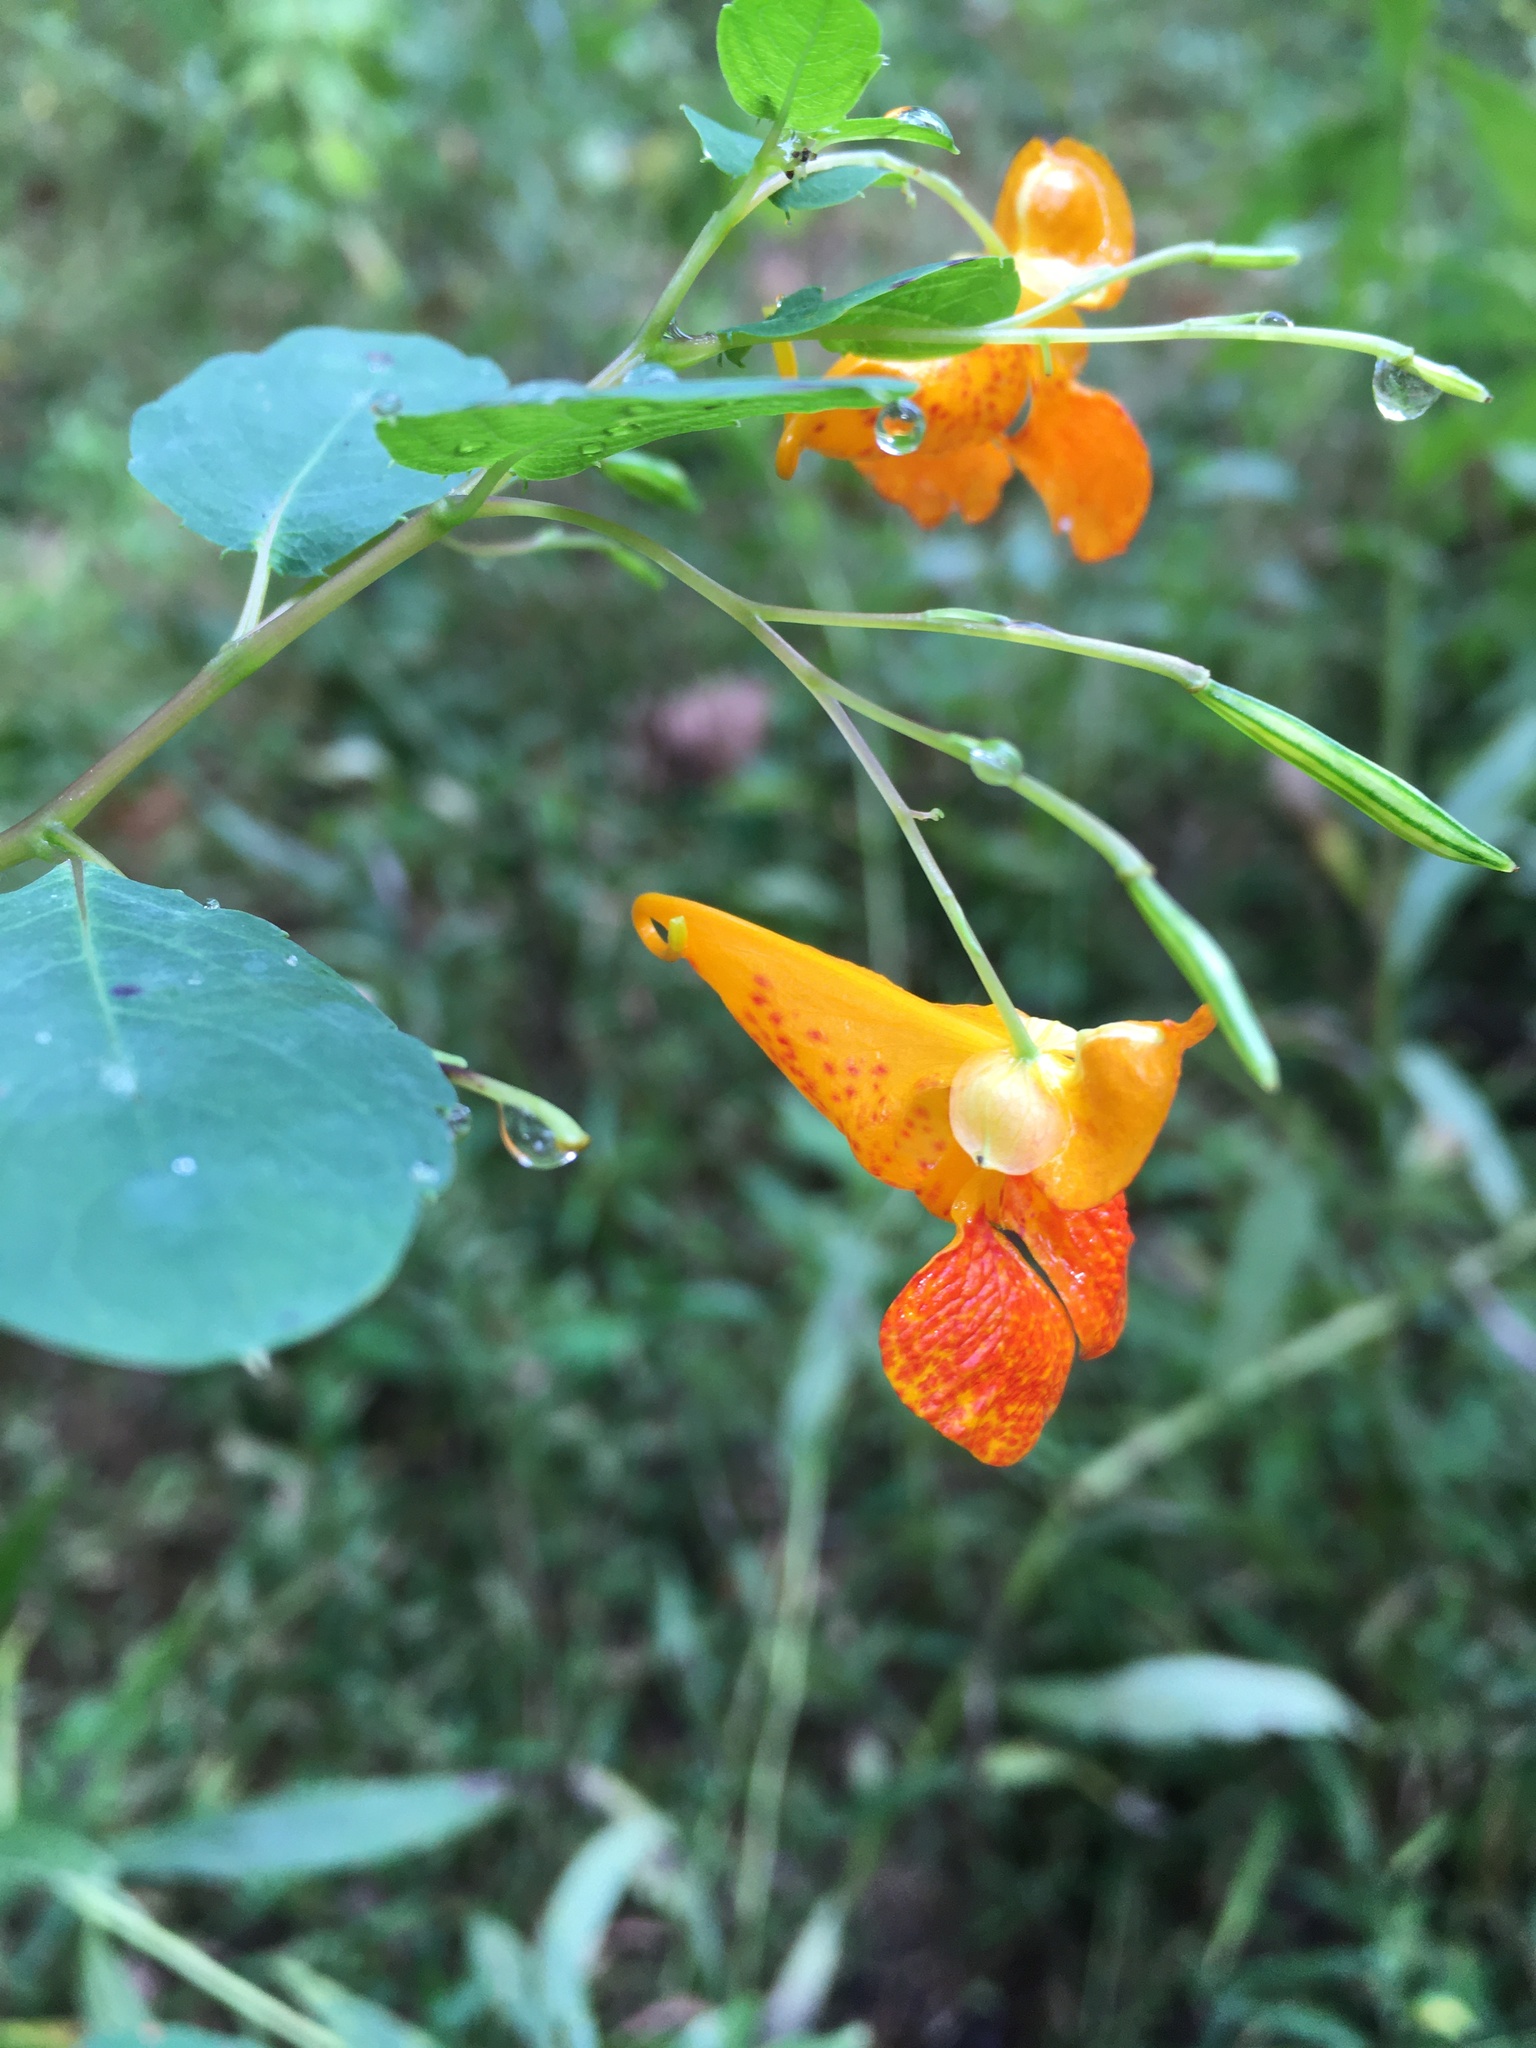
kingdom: Plantae
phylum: Tracheophyta
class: Magnoliopsida
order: Ericales
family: Balsaminaceae
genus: Impatiens
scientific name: Impatiens capensis
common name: Orange balsam
